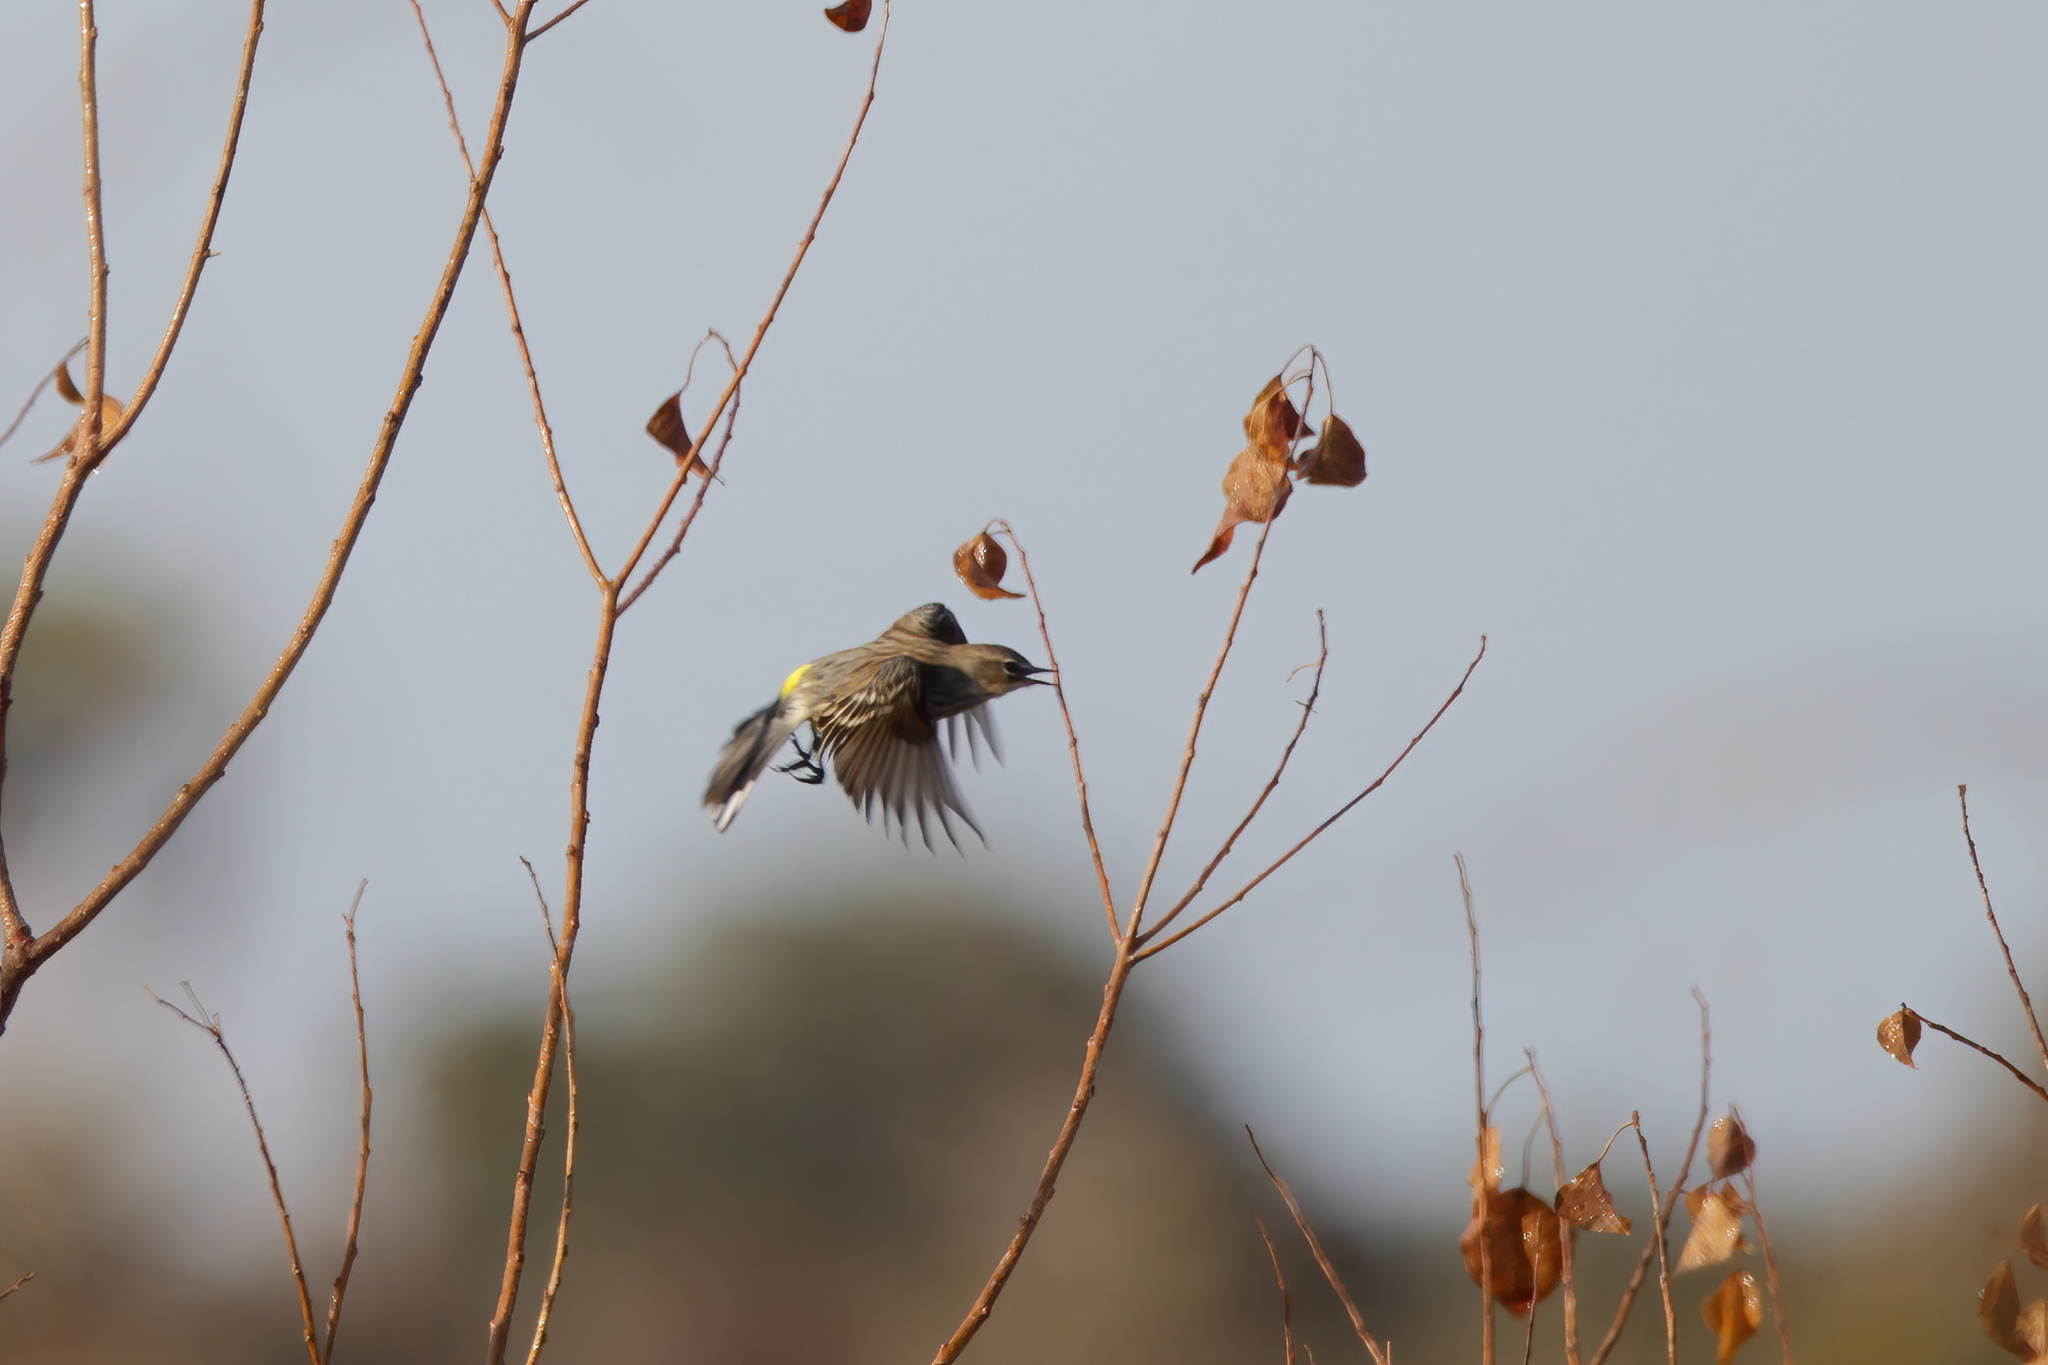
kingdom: Animalia
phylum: Chordata
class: Aves
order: Passeriformes
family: Parulidae
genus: Setophaga
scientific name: Setophaga coronata
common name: Myrtle warbler
